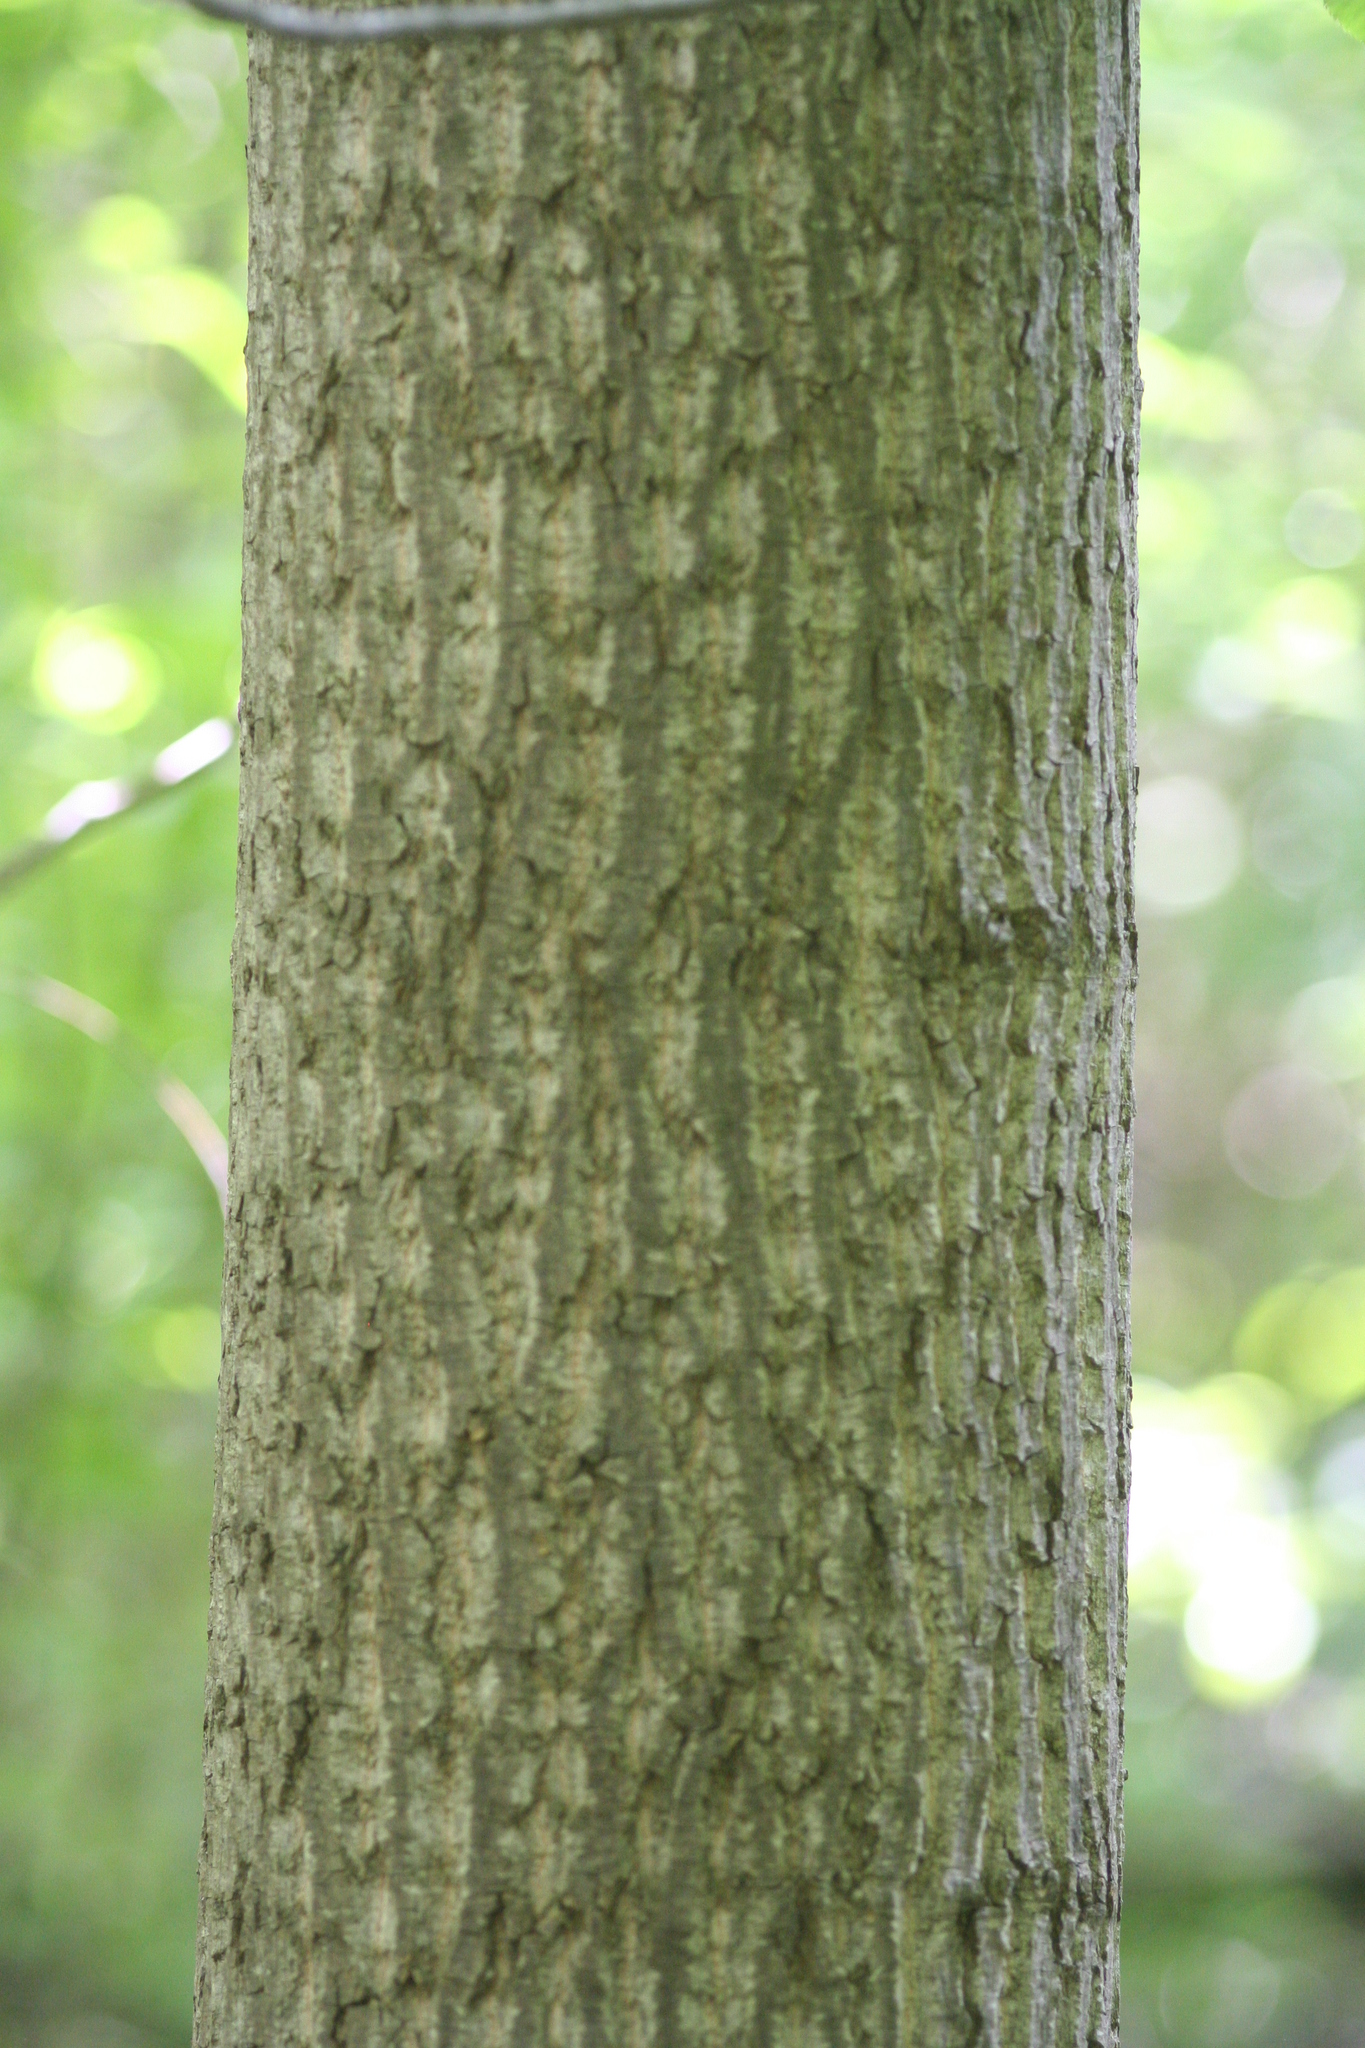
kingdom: Plantae
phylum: Tracheophyta
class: Magnoliopsida
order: Magnoliales
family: Magnoliaceae
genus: Liriodendron
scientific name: Liriodendron tulipifera
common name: Tulip tree
